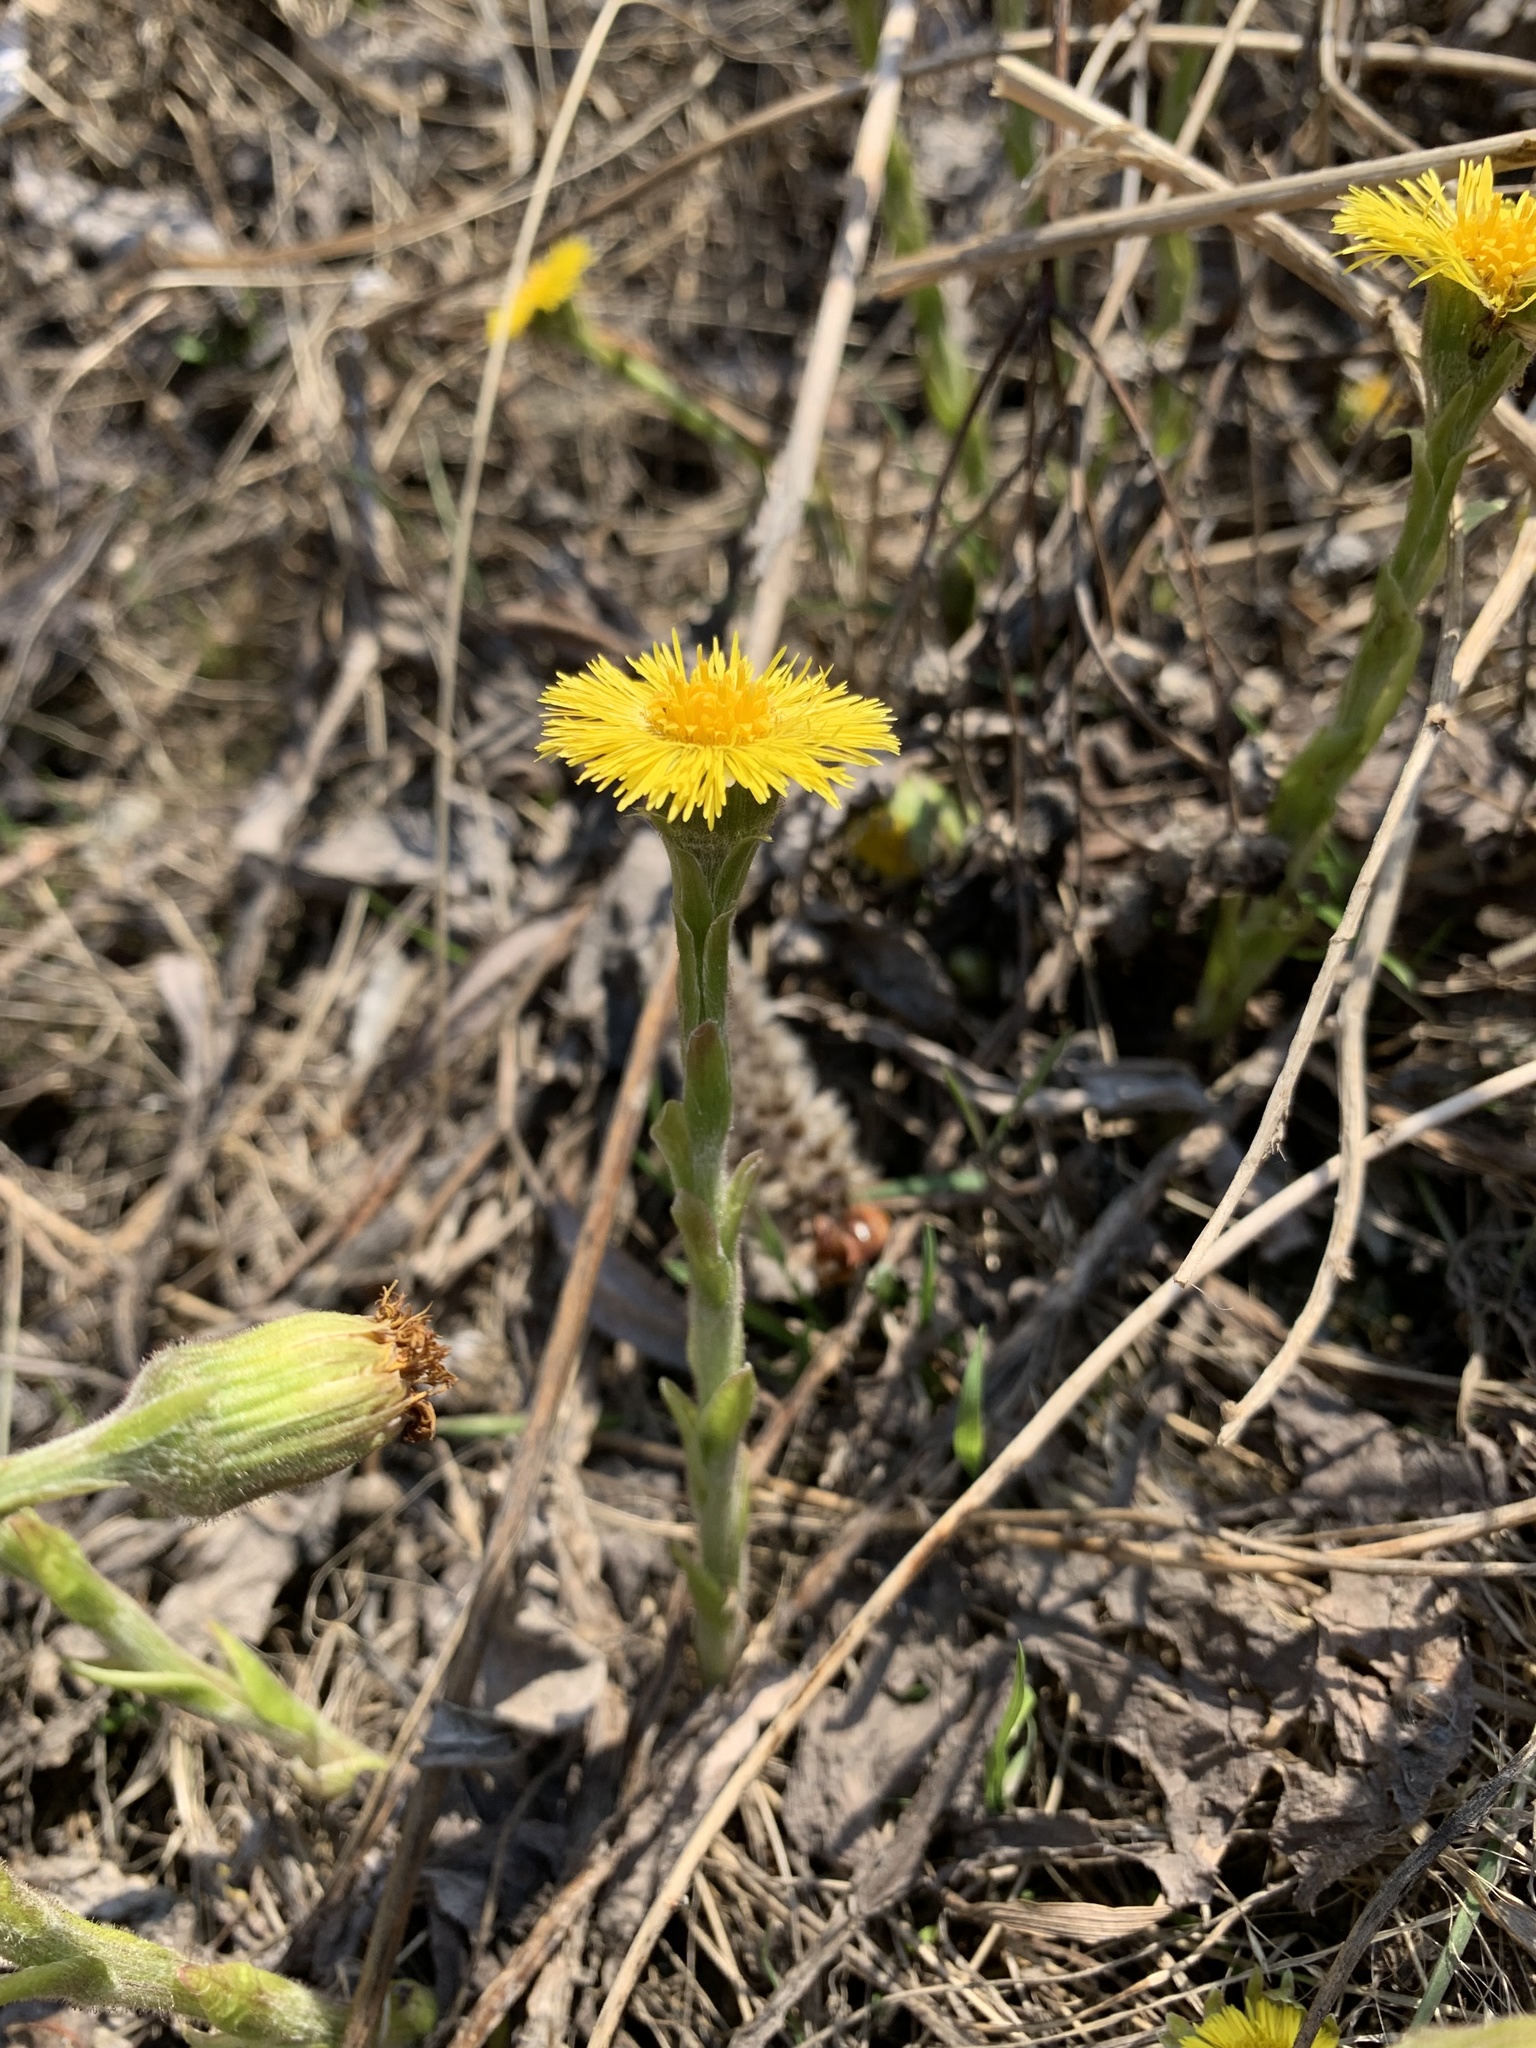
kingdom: Plantae
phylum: Tracheophyta
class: Magnoliopsida
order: Asterales
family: Asteraceae
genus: Tussilago
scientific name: Tussilago farfara
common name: Coltsfoot
